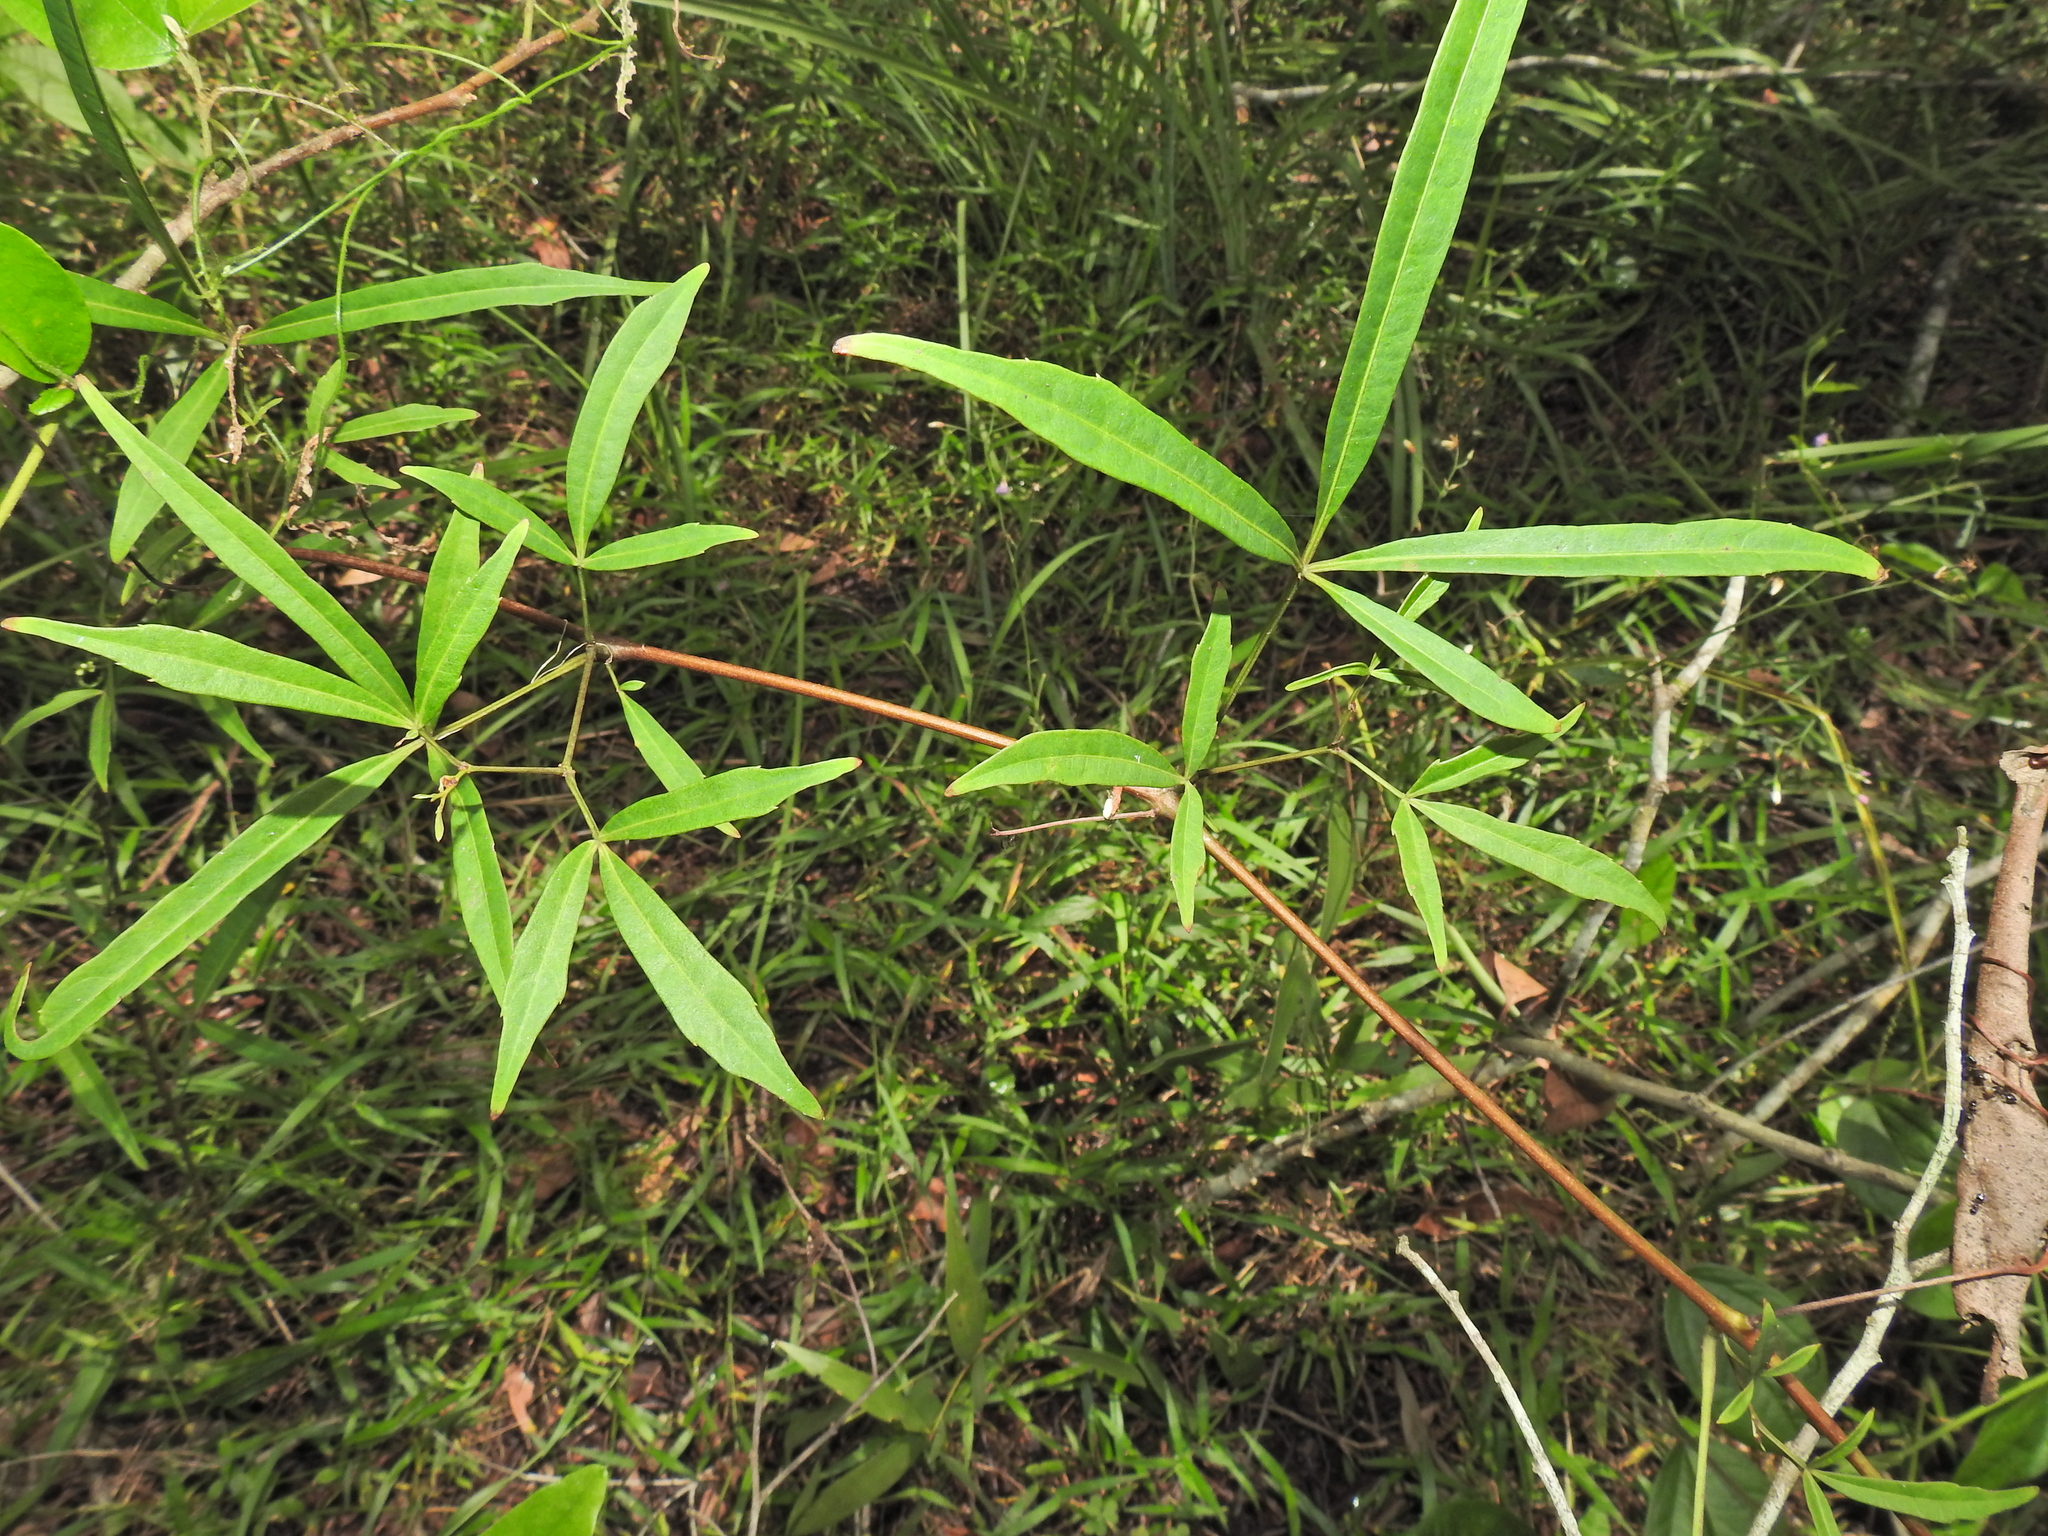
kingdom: Plantae
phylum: Tracheophyta
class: Magnoliopsida
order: Vitales
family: Vitaceae
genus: Clematicissus
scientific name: Clematicissus opaca
